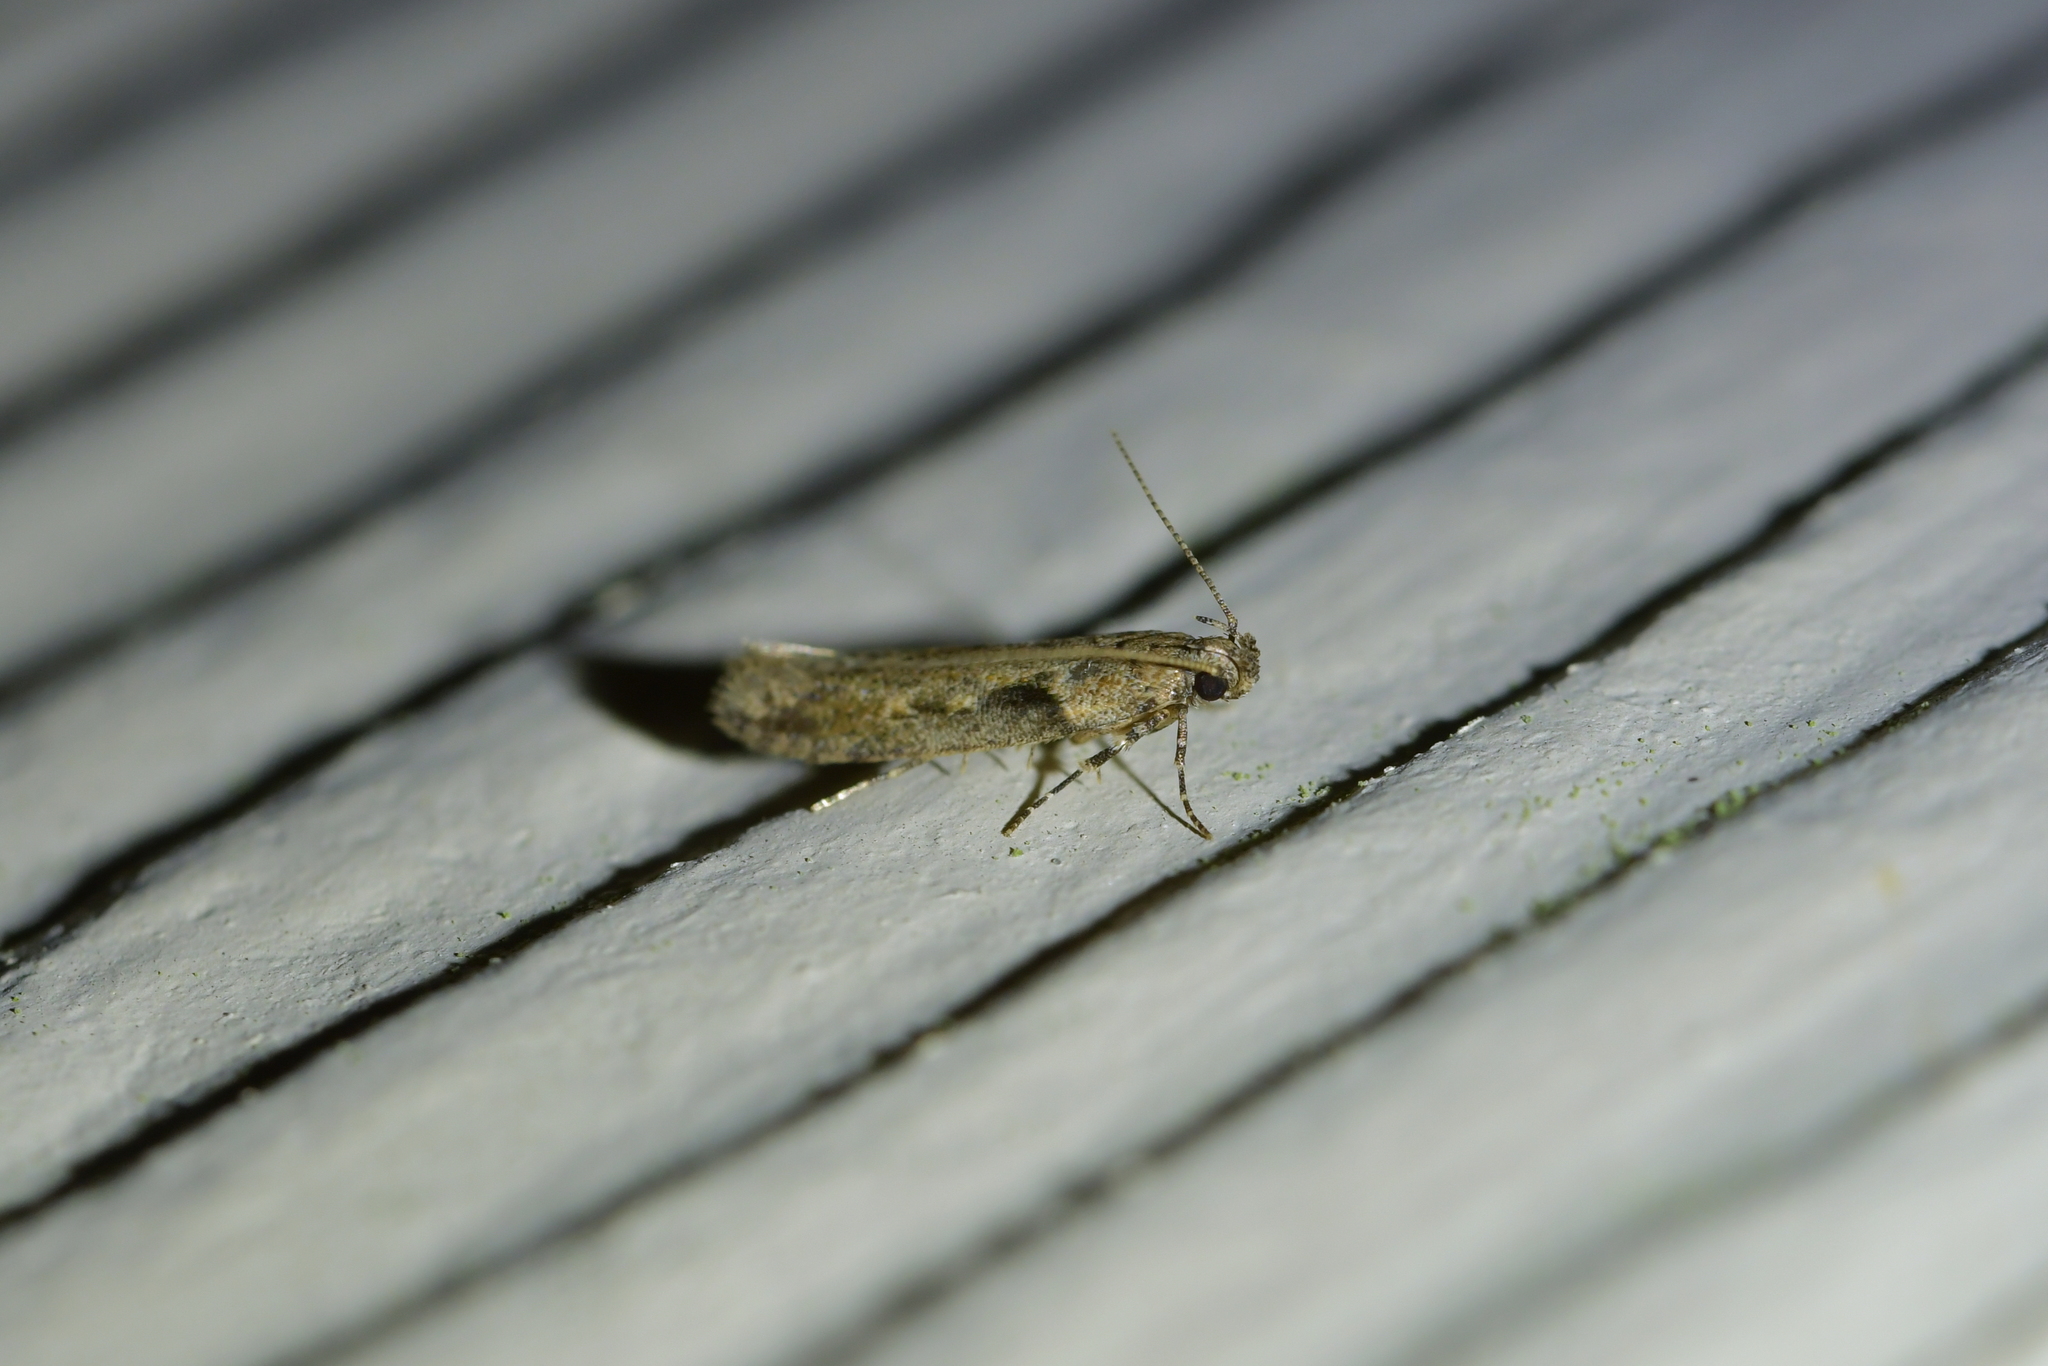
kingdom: Animalia
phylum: Arthropoda
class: Insecta
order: Lepidoptera
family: Gelechiidae
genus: Symmetrischema
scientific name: Symmetrischema tangolias
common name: Moth
